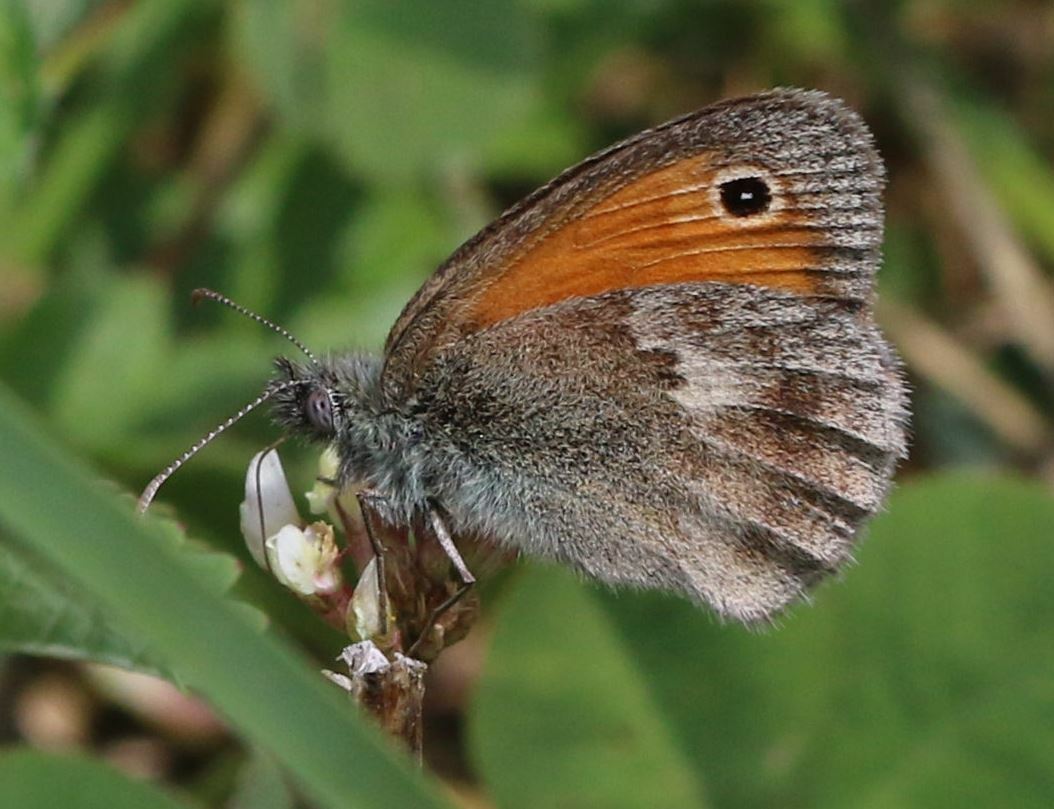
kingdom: Animalia
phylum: Arthropoda
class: Insecta
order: Lepidoptera
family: Nymphalidae
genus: Coenonympha
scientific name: Coenonympha pamphilus
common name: Small heath
